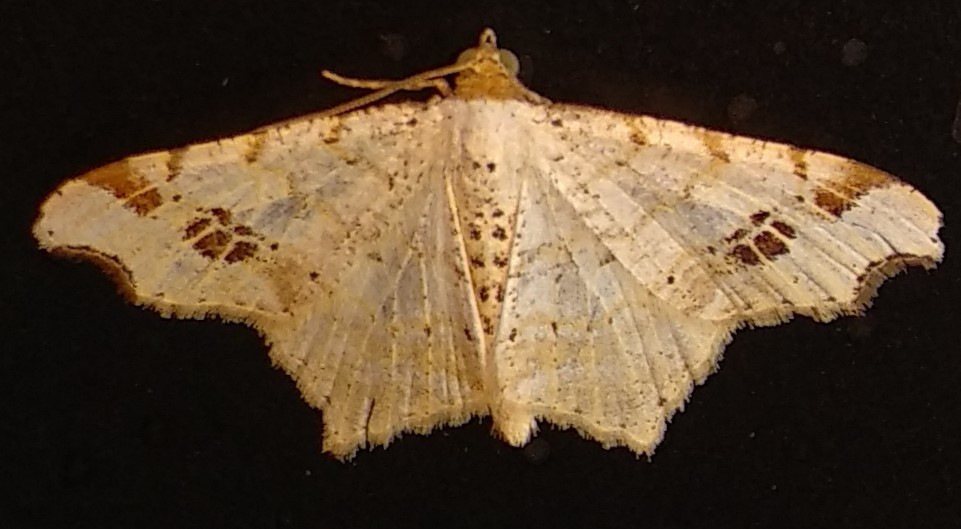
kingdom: Animalia
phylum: Arthropoda
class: Insecta
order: Lepidoptera
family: Geometridae
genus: Macaria
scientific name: Macaria aemulataria
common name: Common angle
